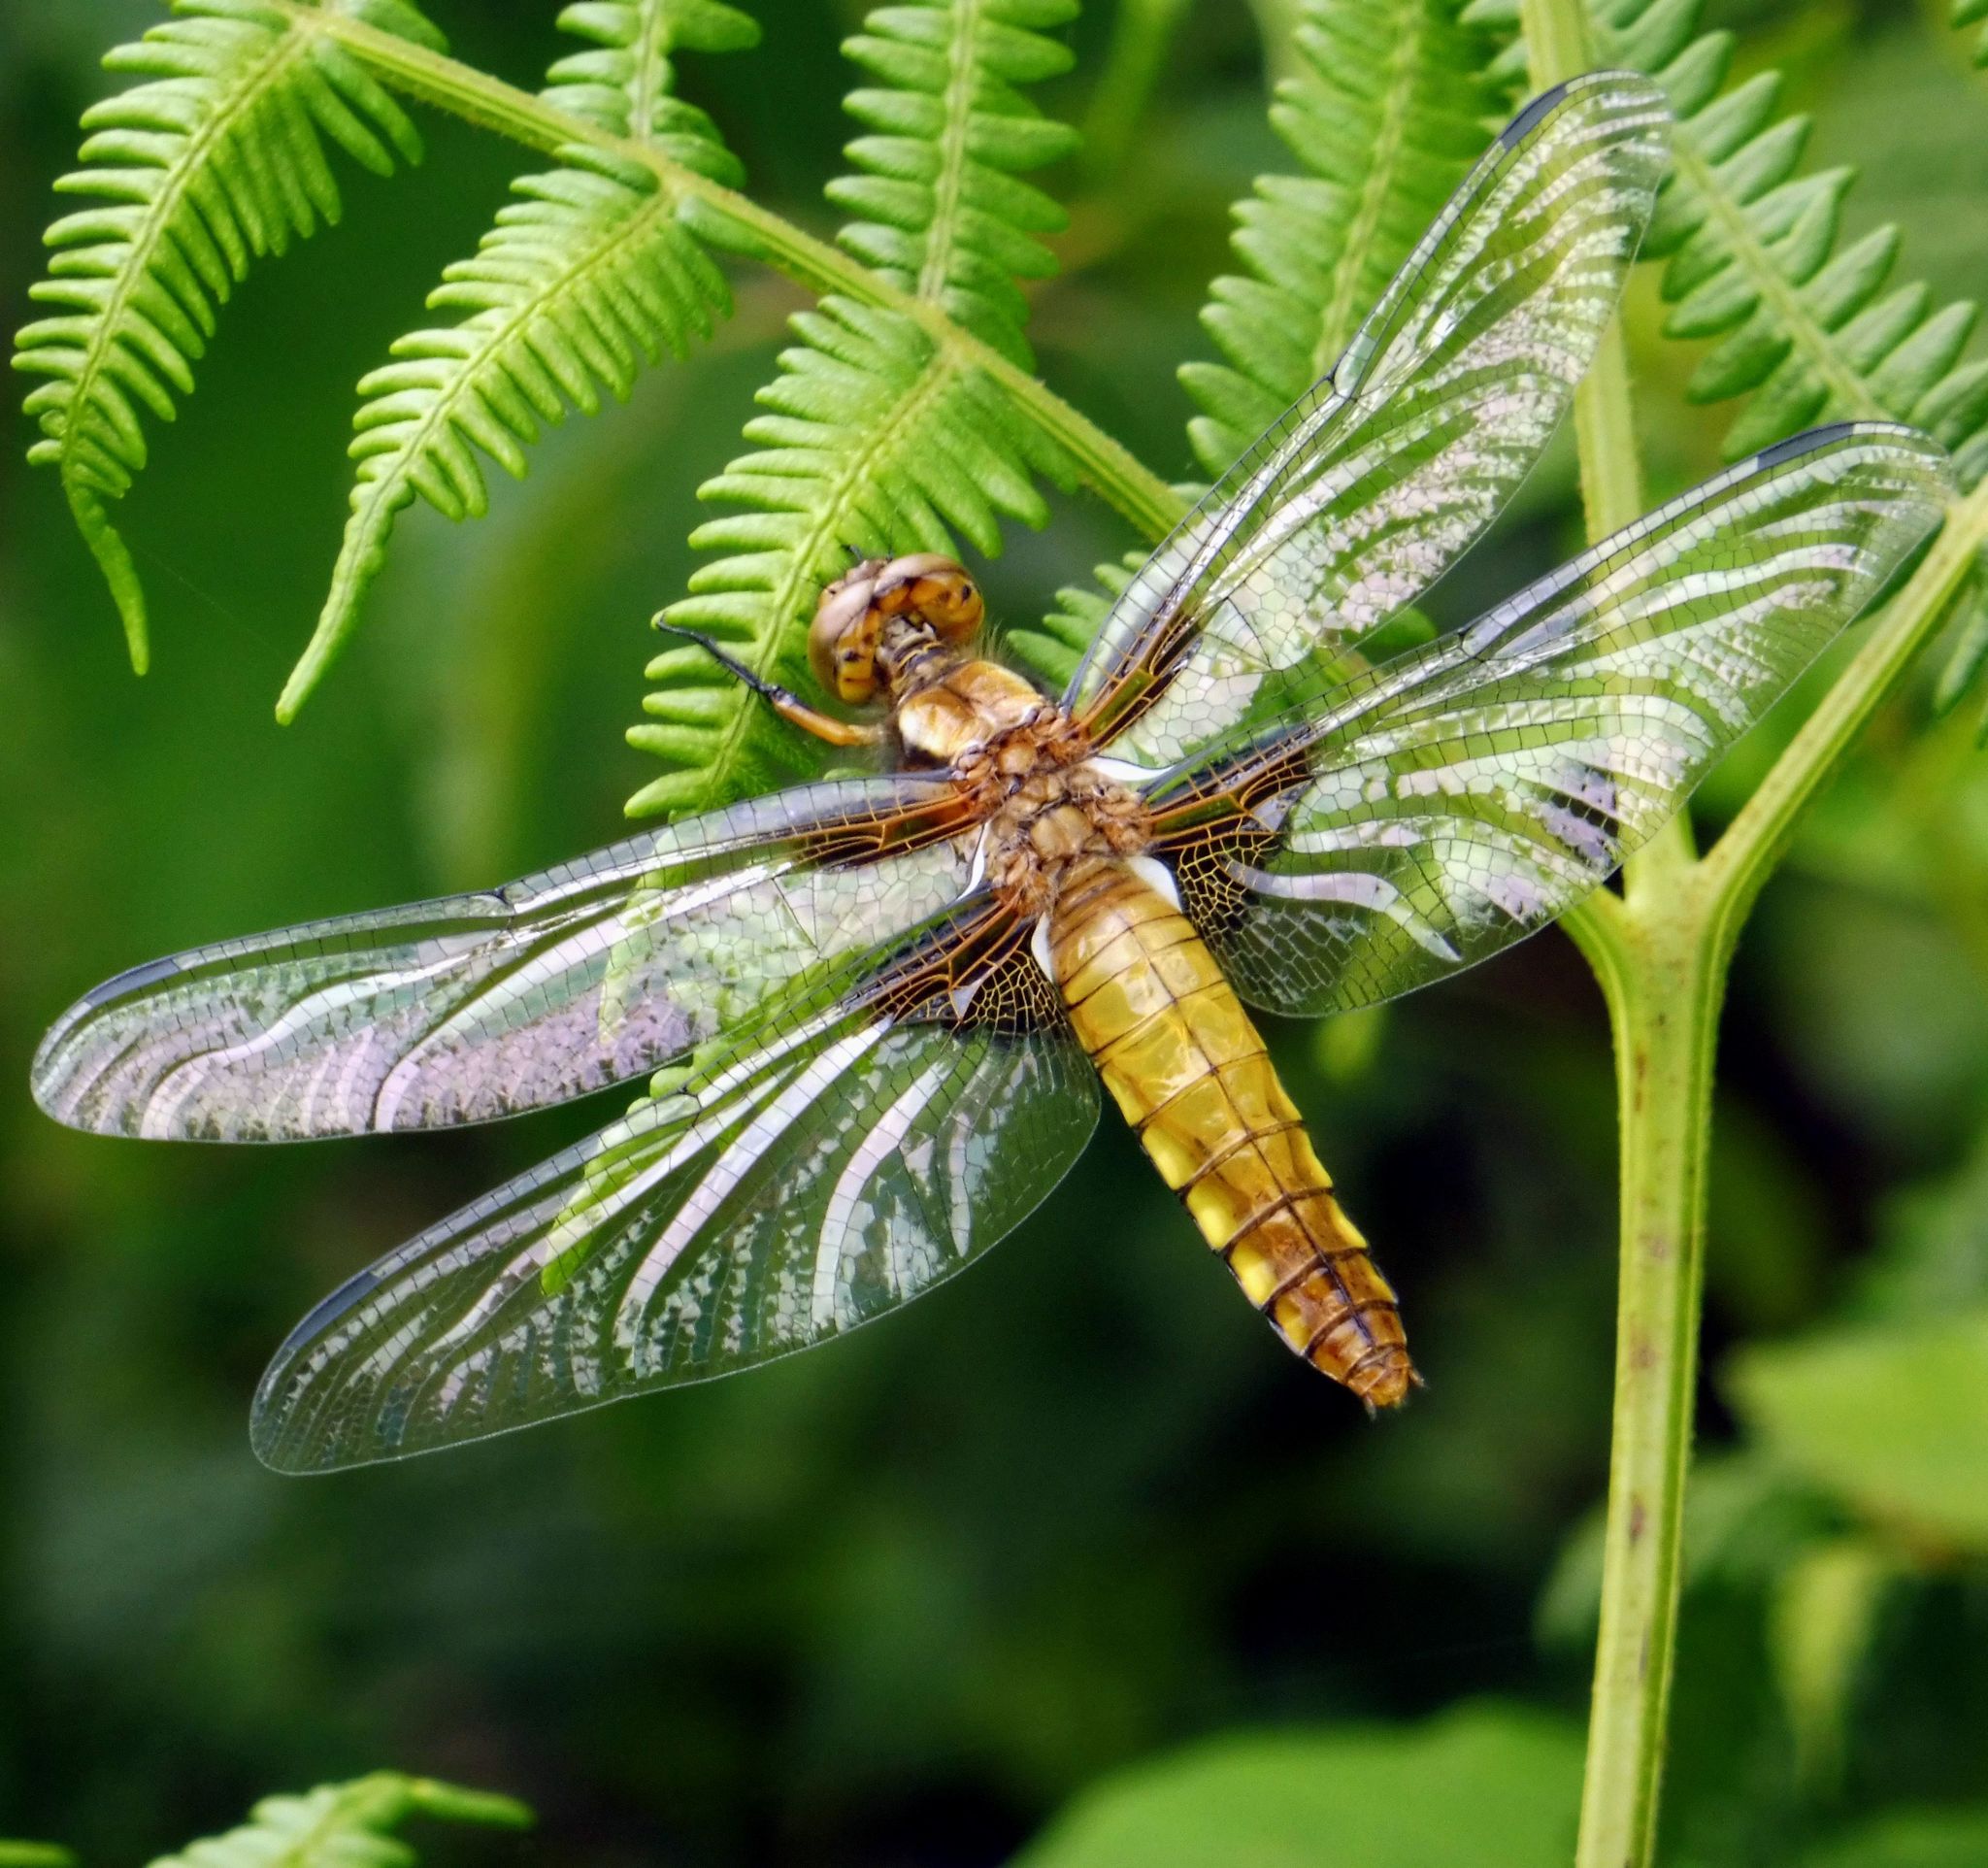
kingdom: Animalia
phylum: Arthropoda
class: Insecta
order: Odonata
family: Libellulidae
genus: Libellula
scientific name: Libellula depressa
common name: Broad-bodied chaser
